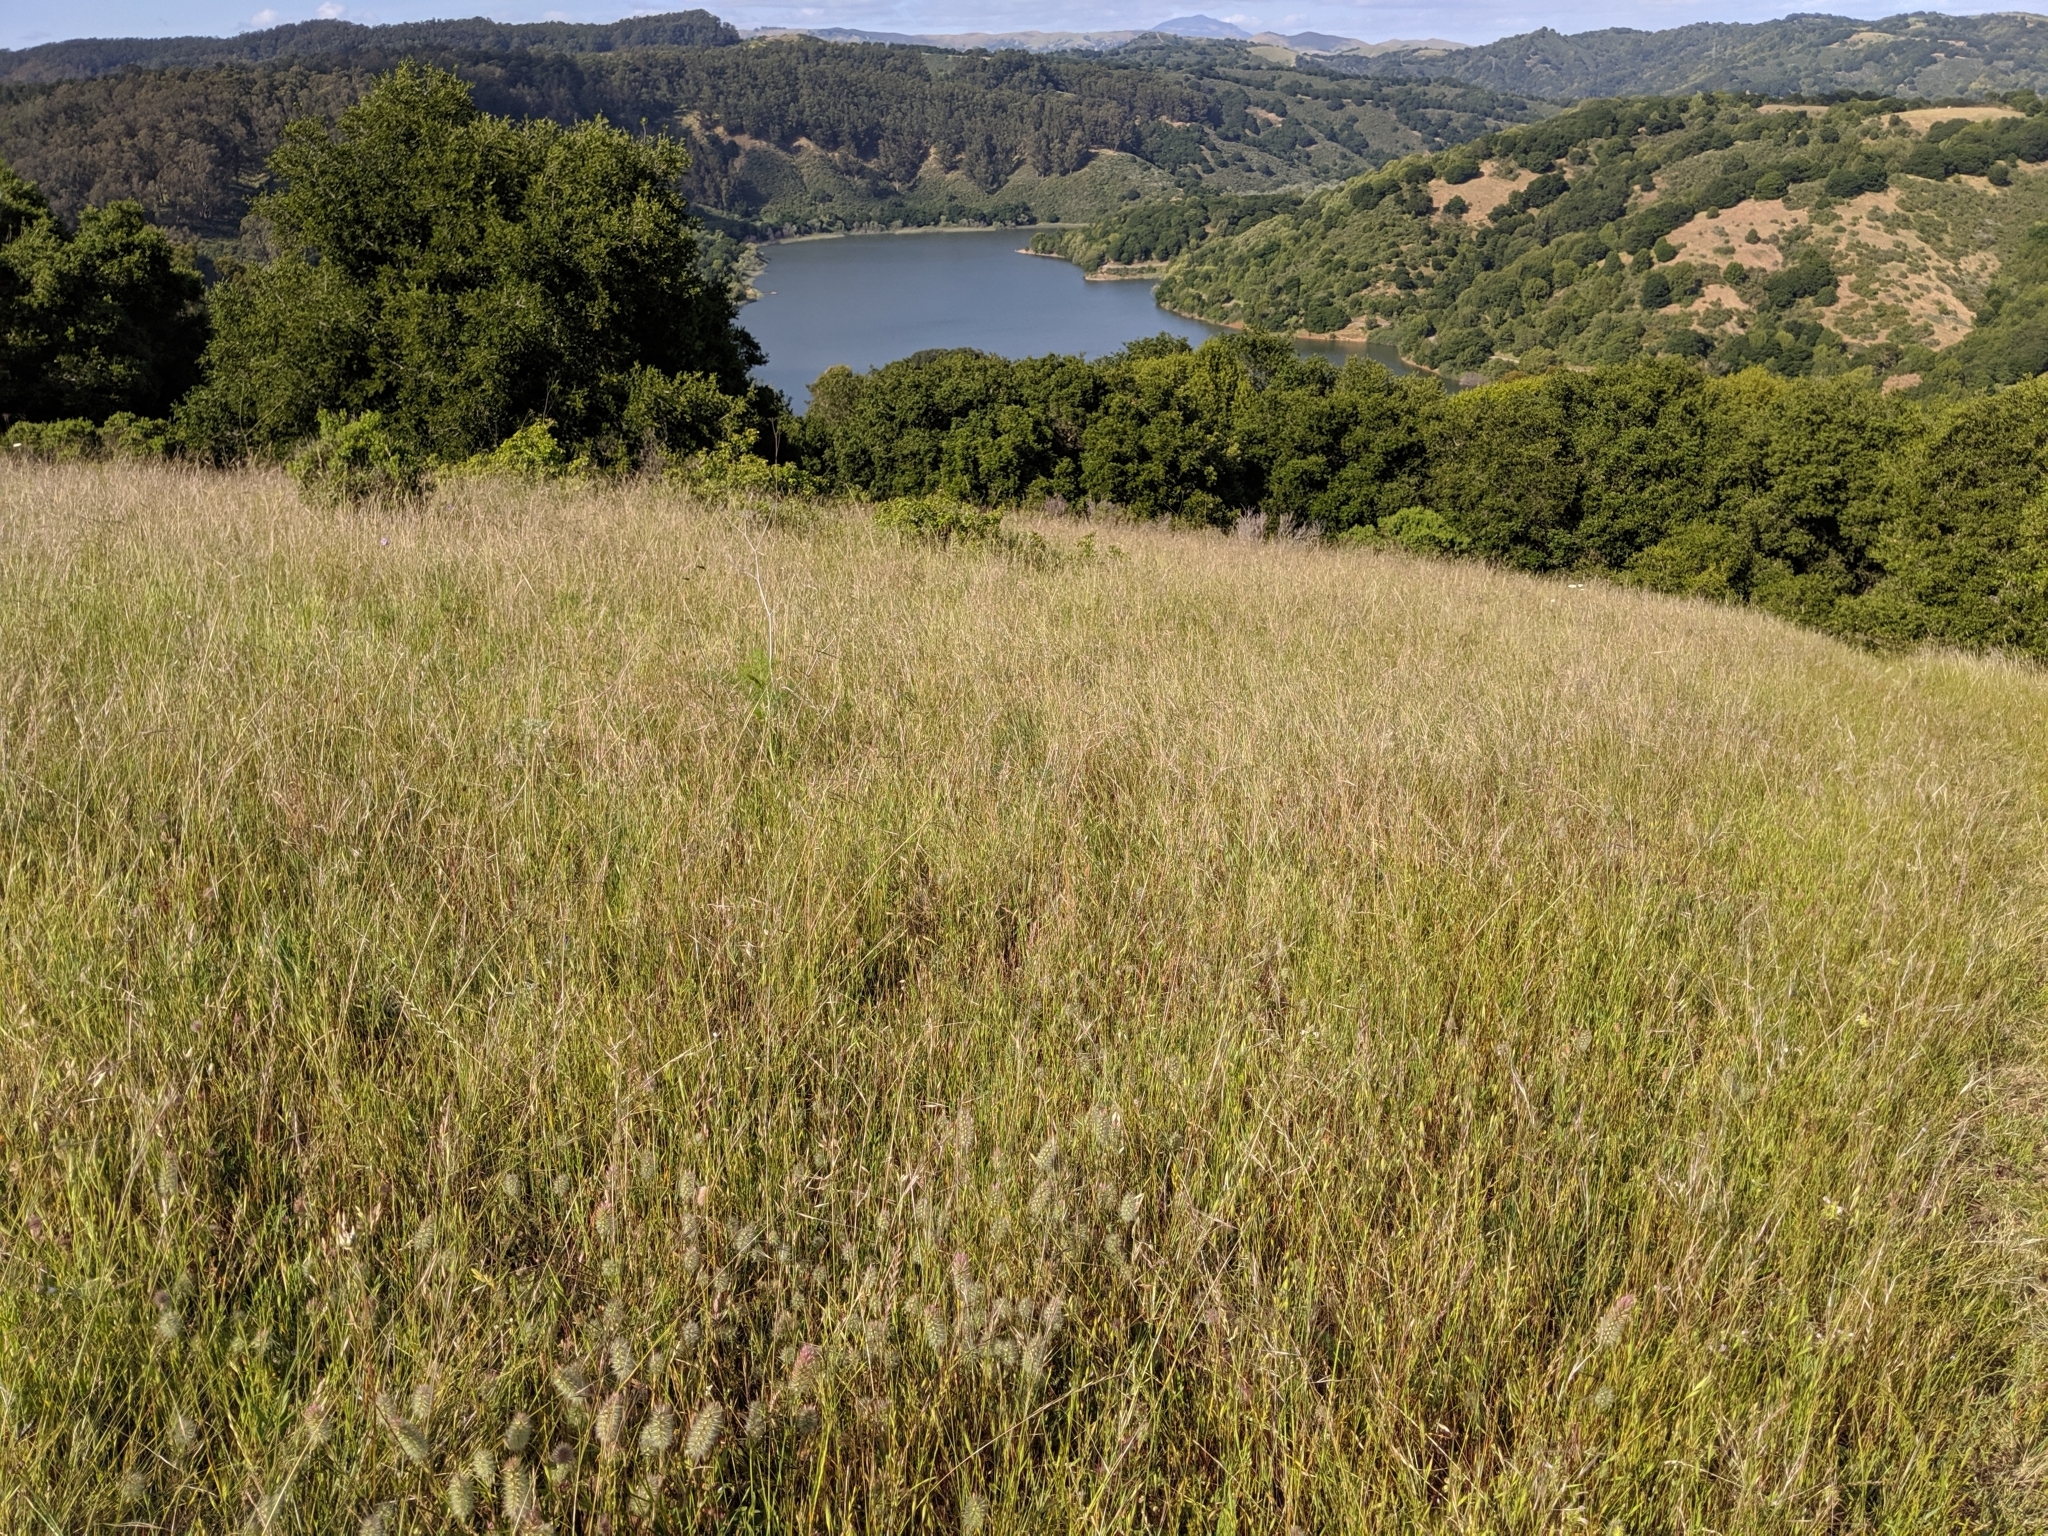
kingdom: Plantae
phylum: Tracheophyta
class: Liliopsida
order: Poales
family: Poaceae
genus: Nassella
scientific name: Nassella pulchra
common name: Purple needlegrass
